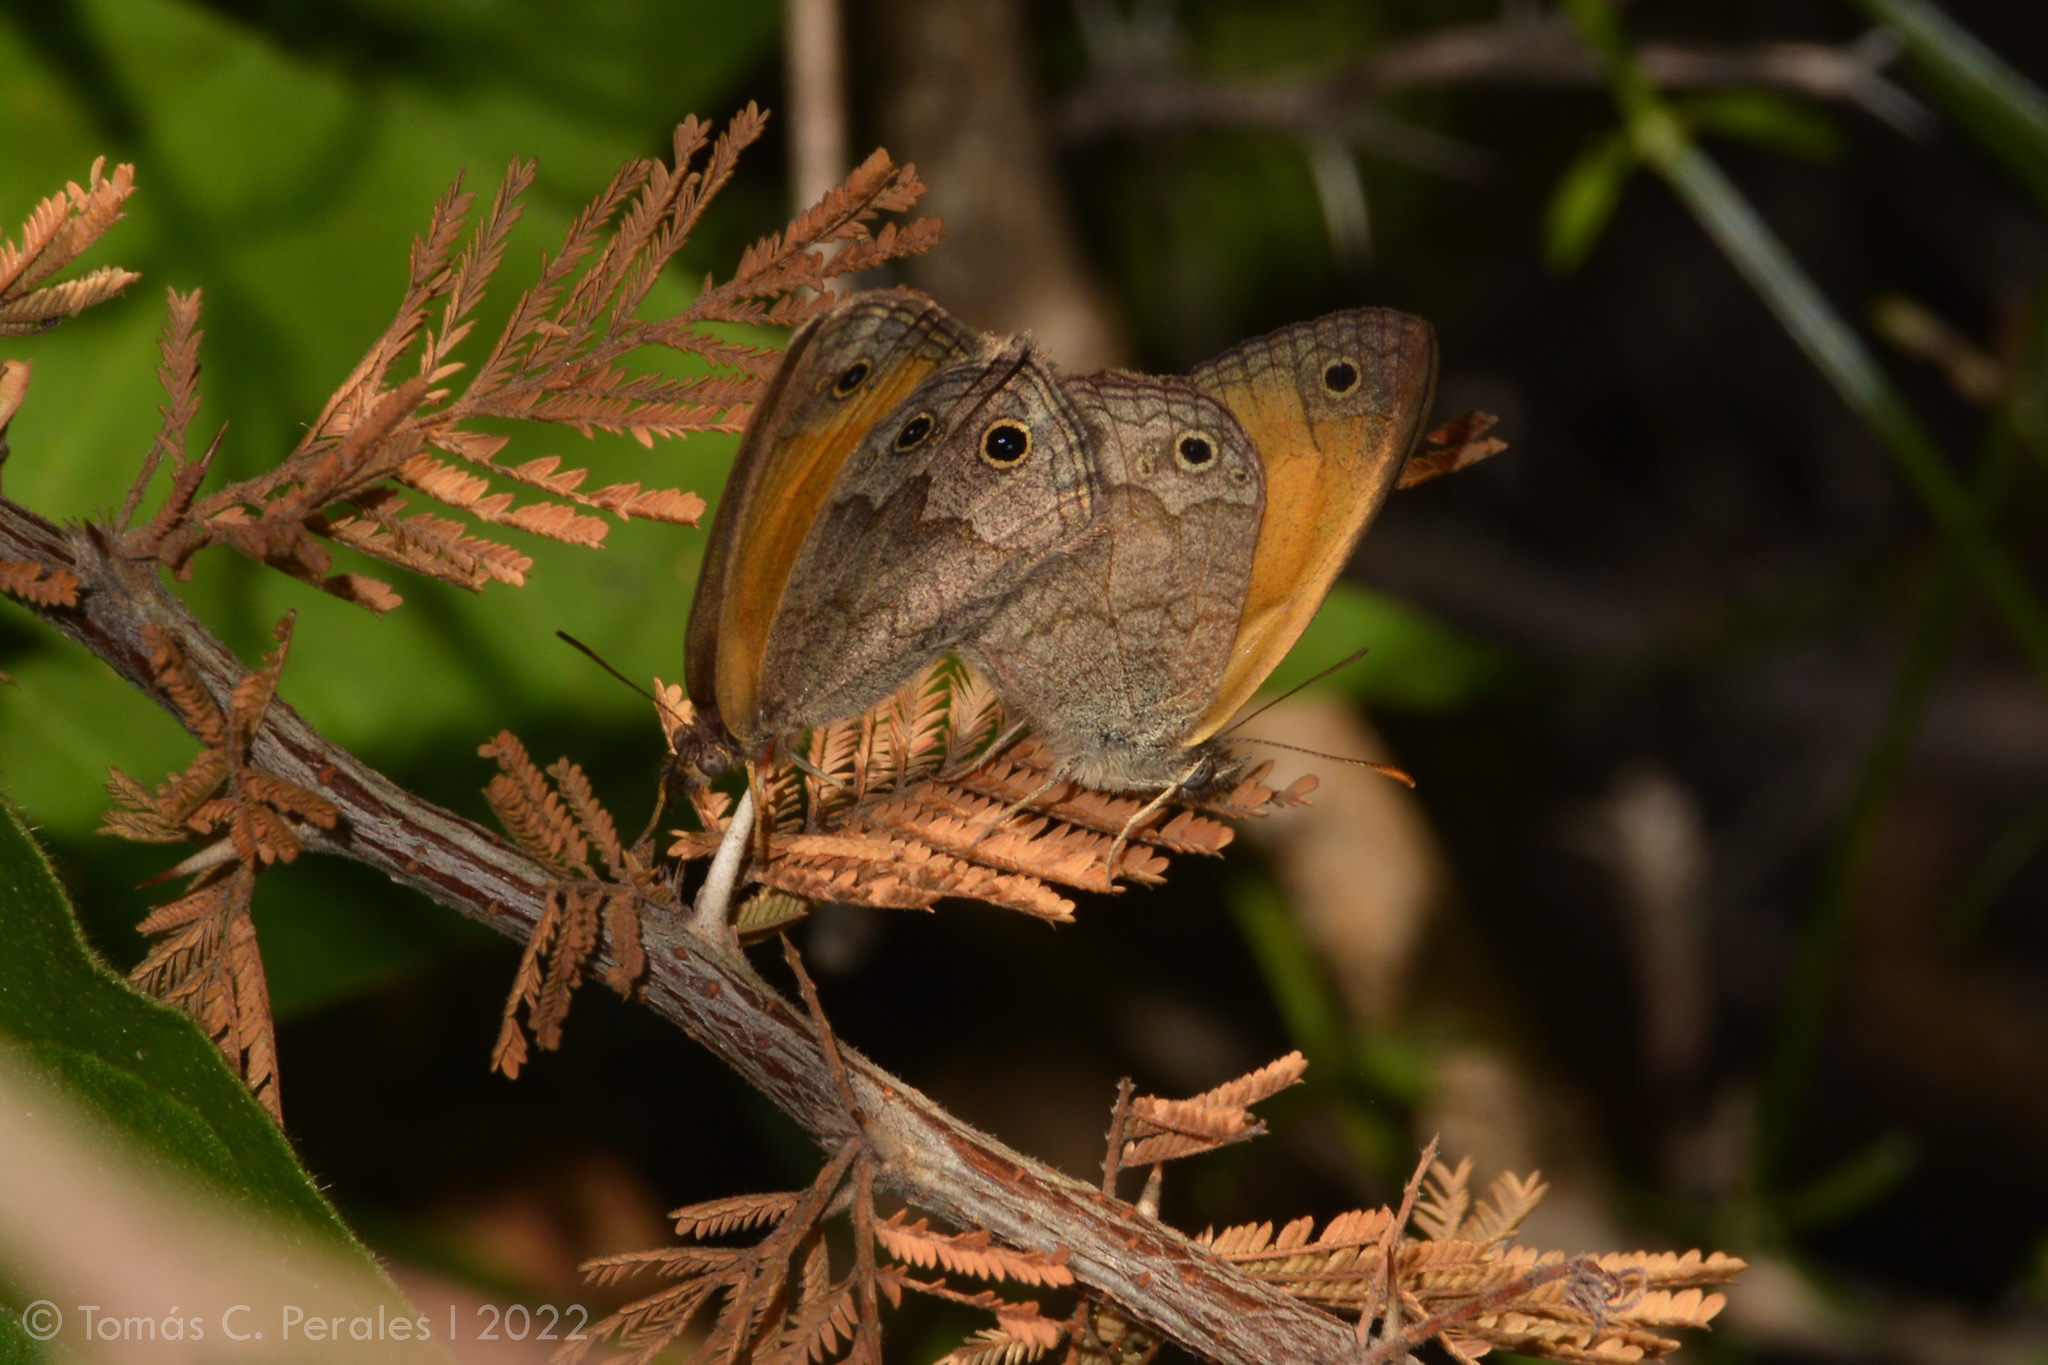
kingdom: Animalia
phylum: Arthropoda
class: Insecta
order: Lepidoptera
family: Nymphalidae
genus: Pharneuptychia
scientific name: Pharneuptychia phares
